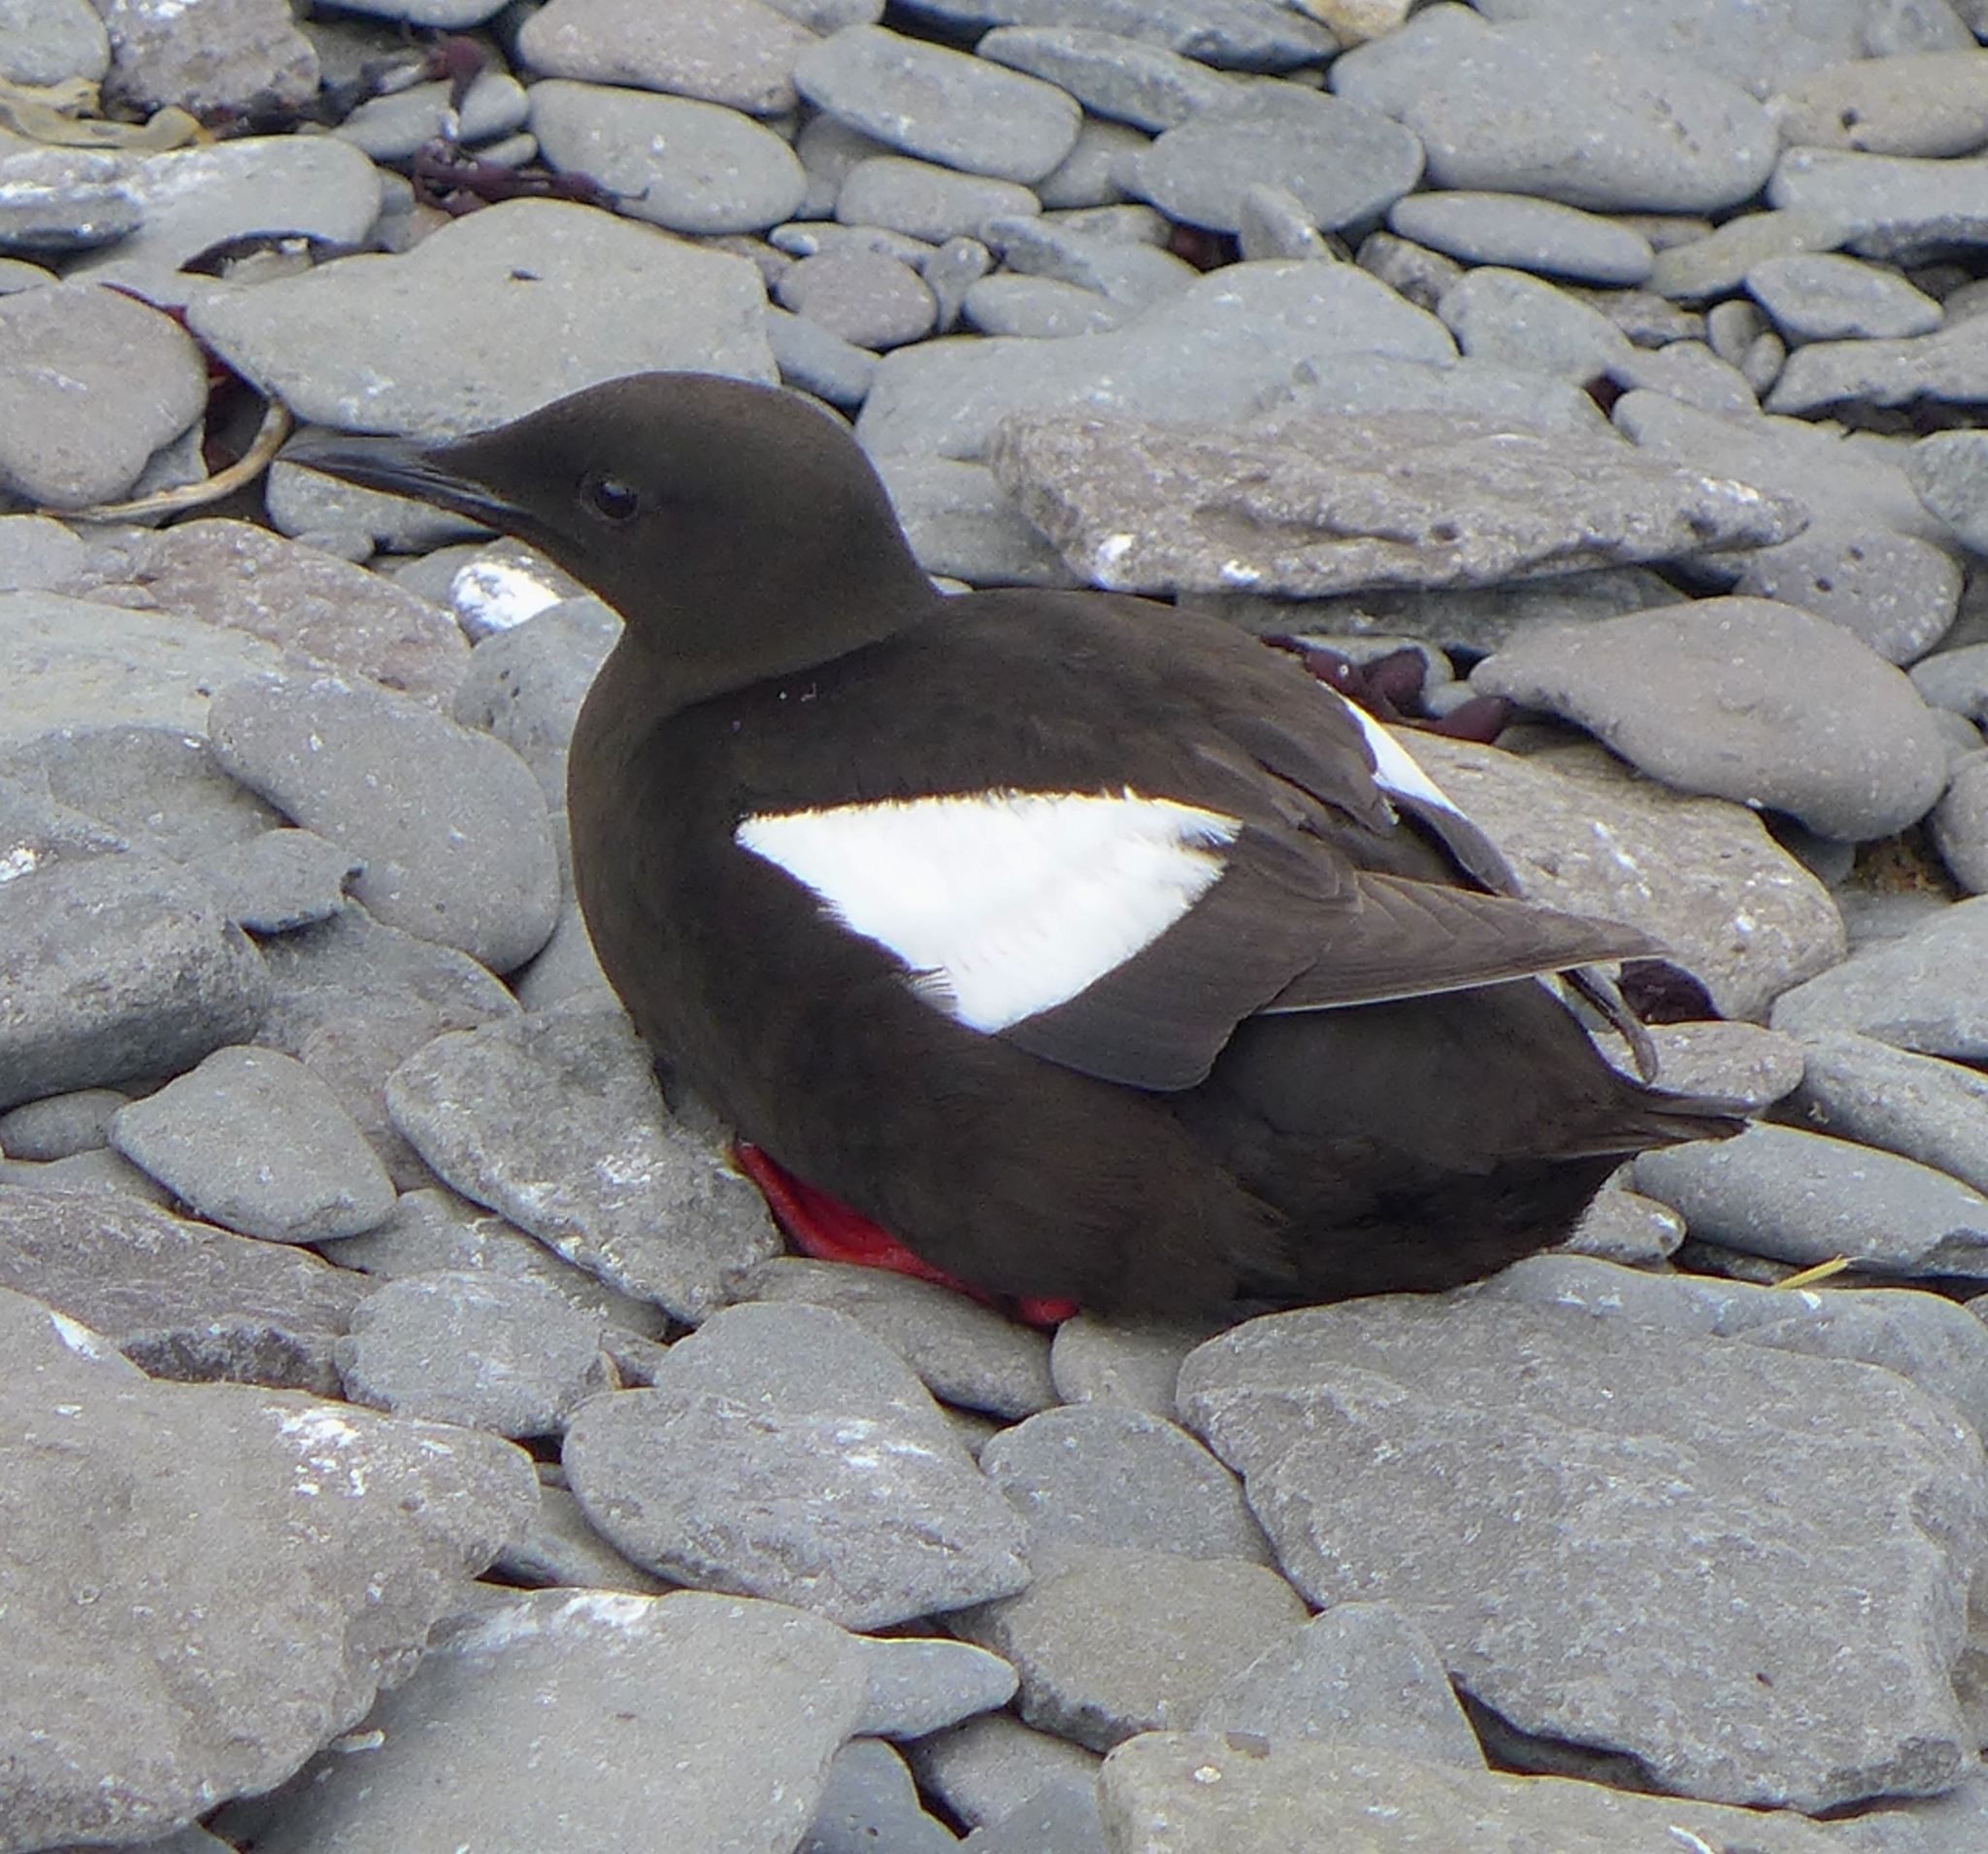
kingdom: Animalia
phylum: Chordata
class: Aves
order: Charadriiformes
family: Alcidae
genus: Cepphus
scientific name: Cepphus grylle
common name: Black guillemot
